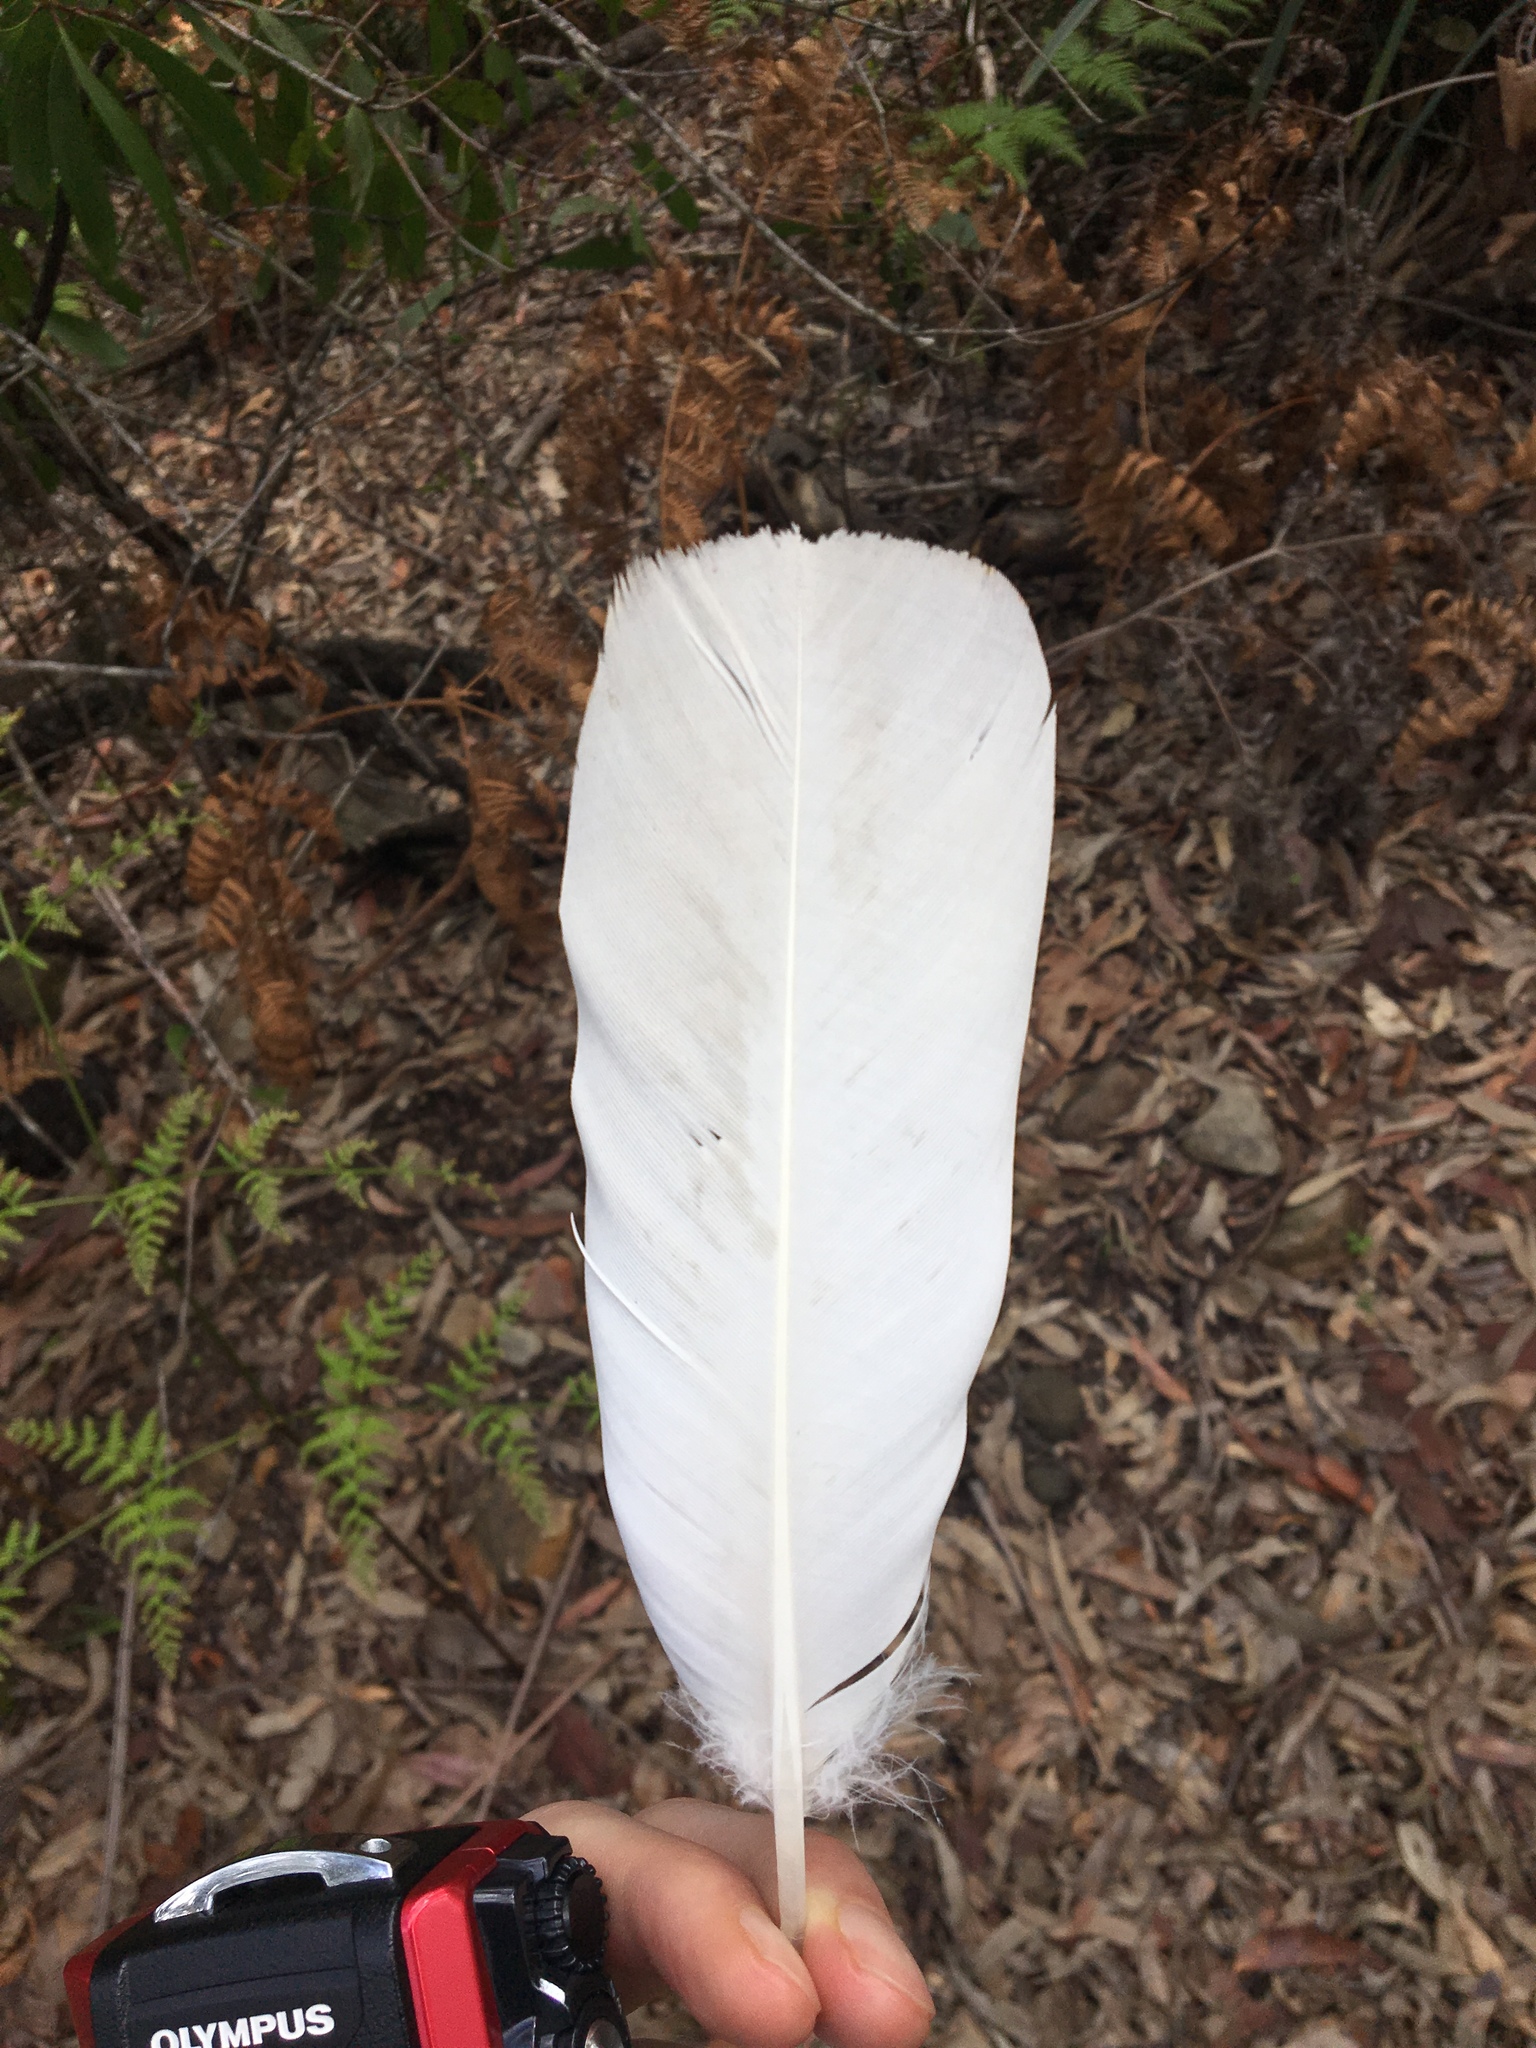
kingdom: Animalia
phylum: Chordata
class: Aves
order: Psittaciformes
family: Psittacidae
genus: Cacatua
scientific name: Cacatua galerita
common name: Sulphur-crested cockatoo
